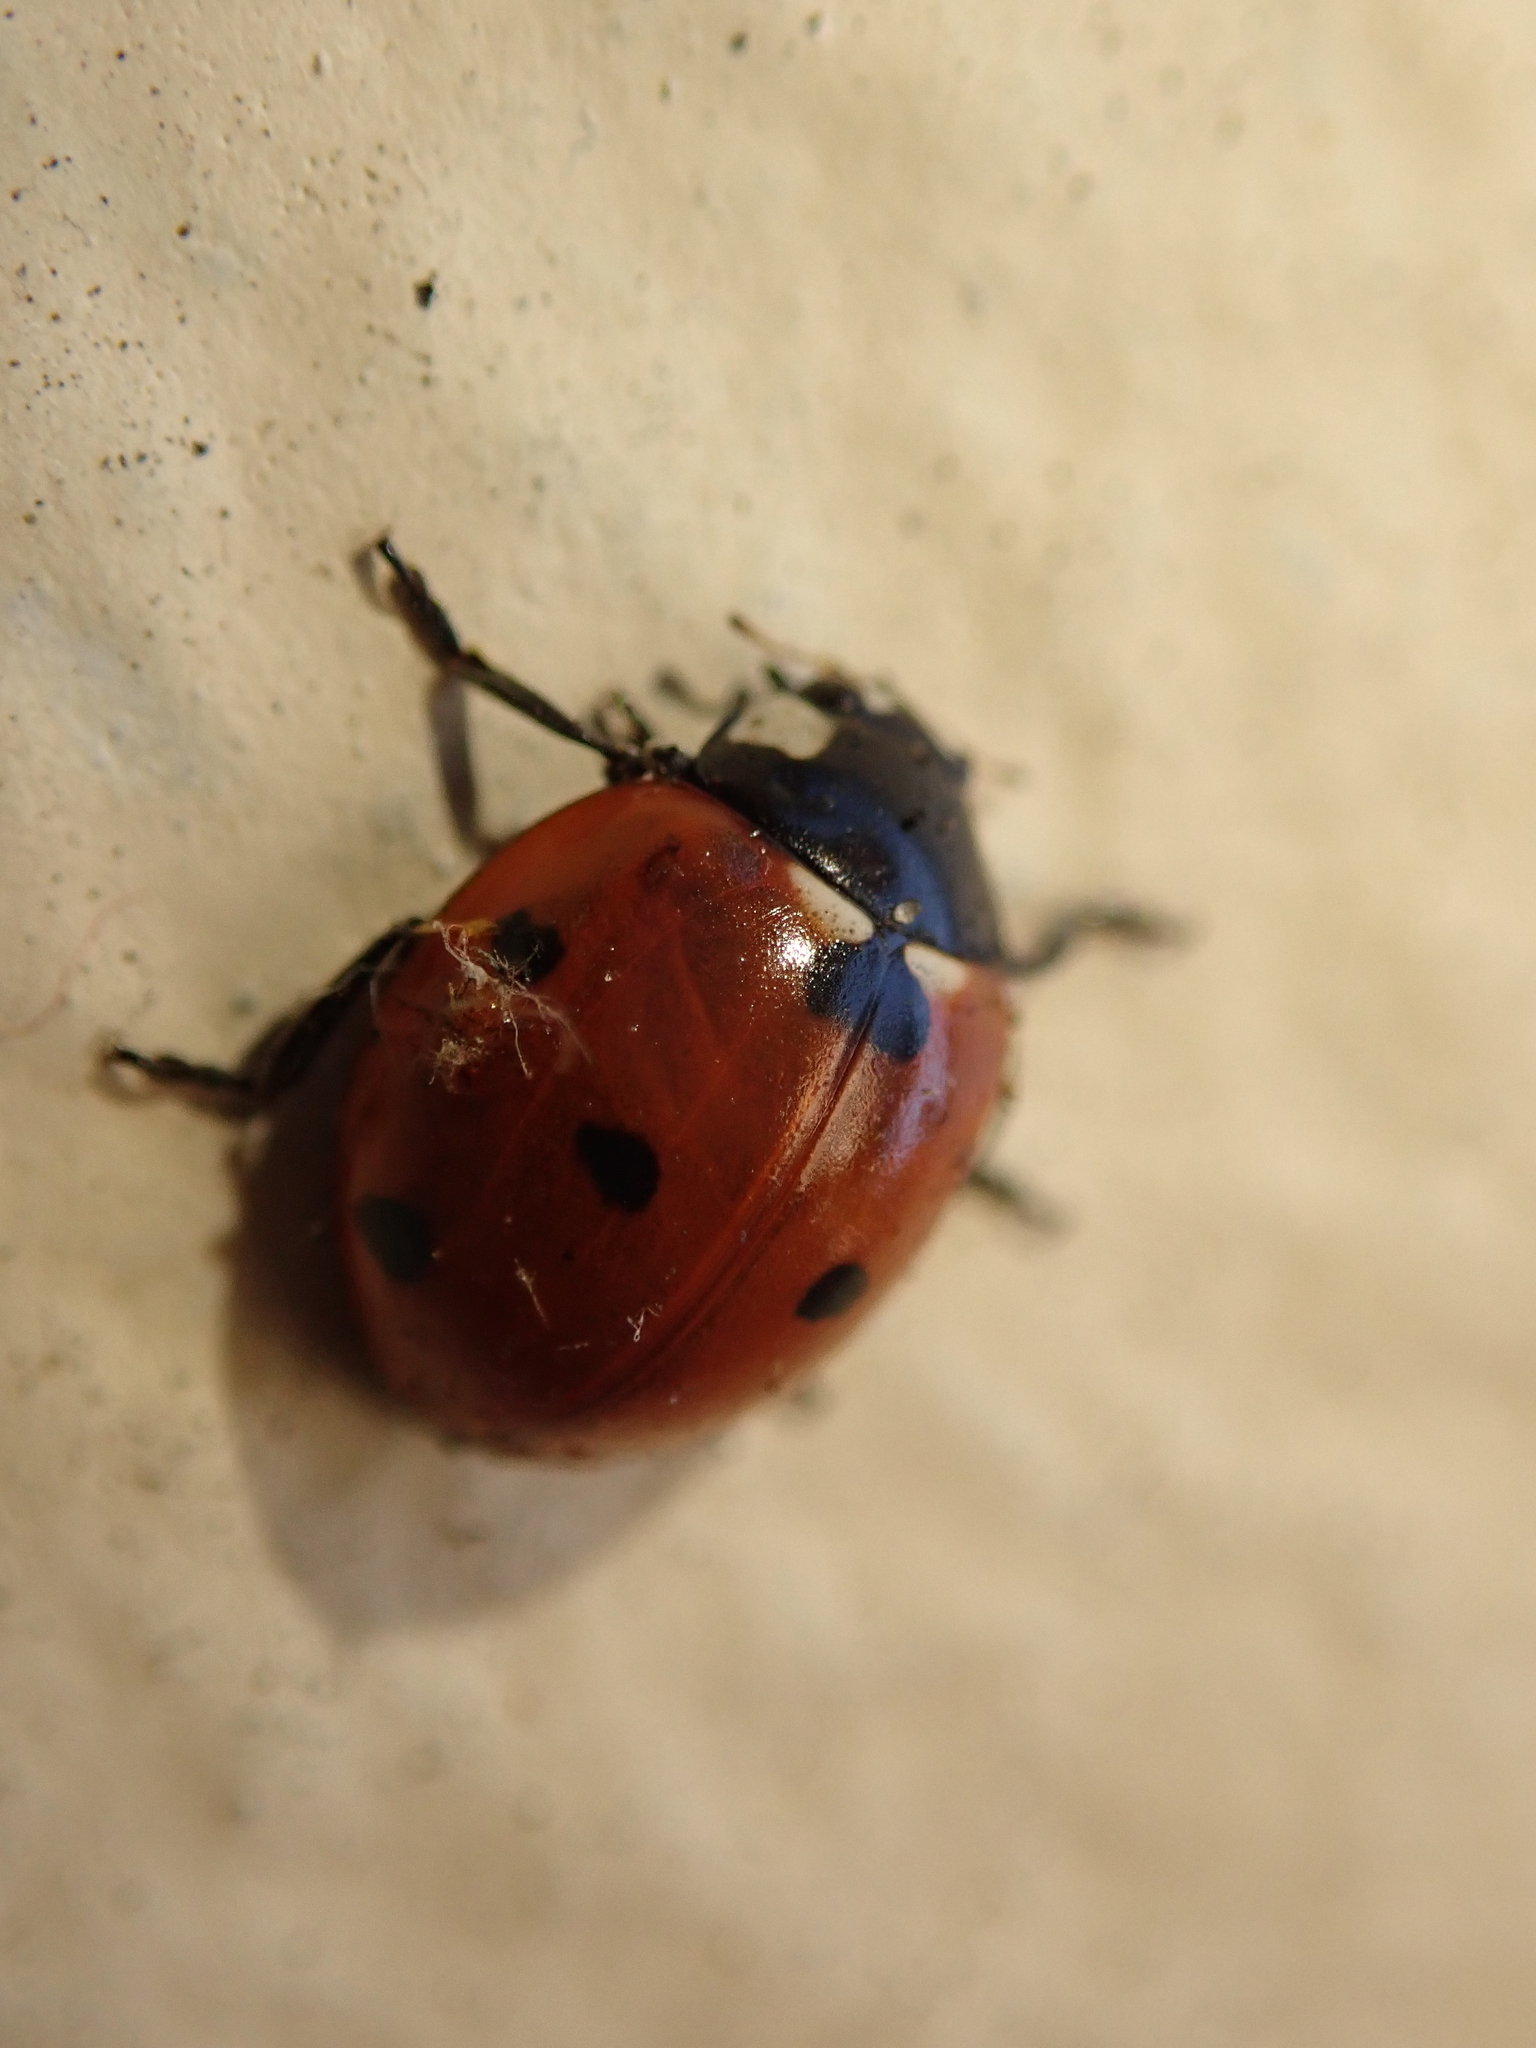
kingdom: Animalia
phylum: Arthropoda
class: Insecta
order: Coleoptera
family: Coccinellidae
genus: Coccinella
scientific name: Coccinella septempunctata
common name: Sevenspotted lady beetle
